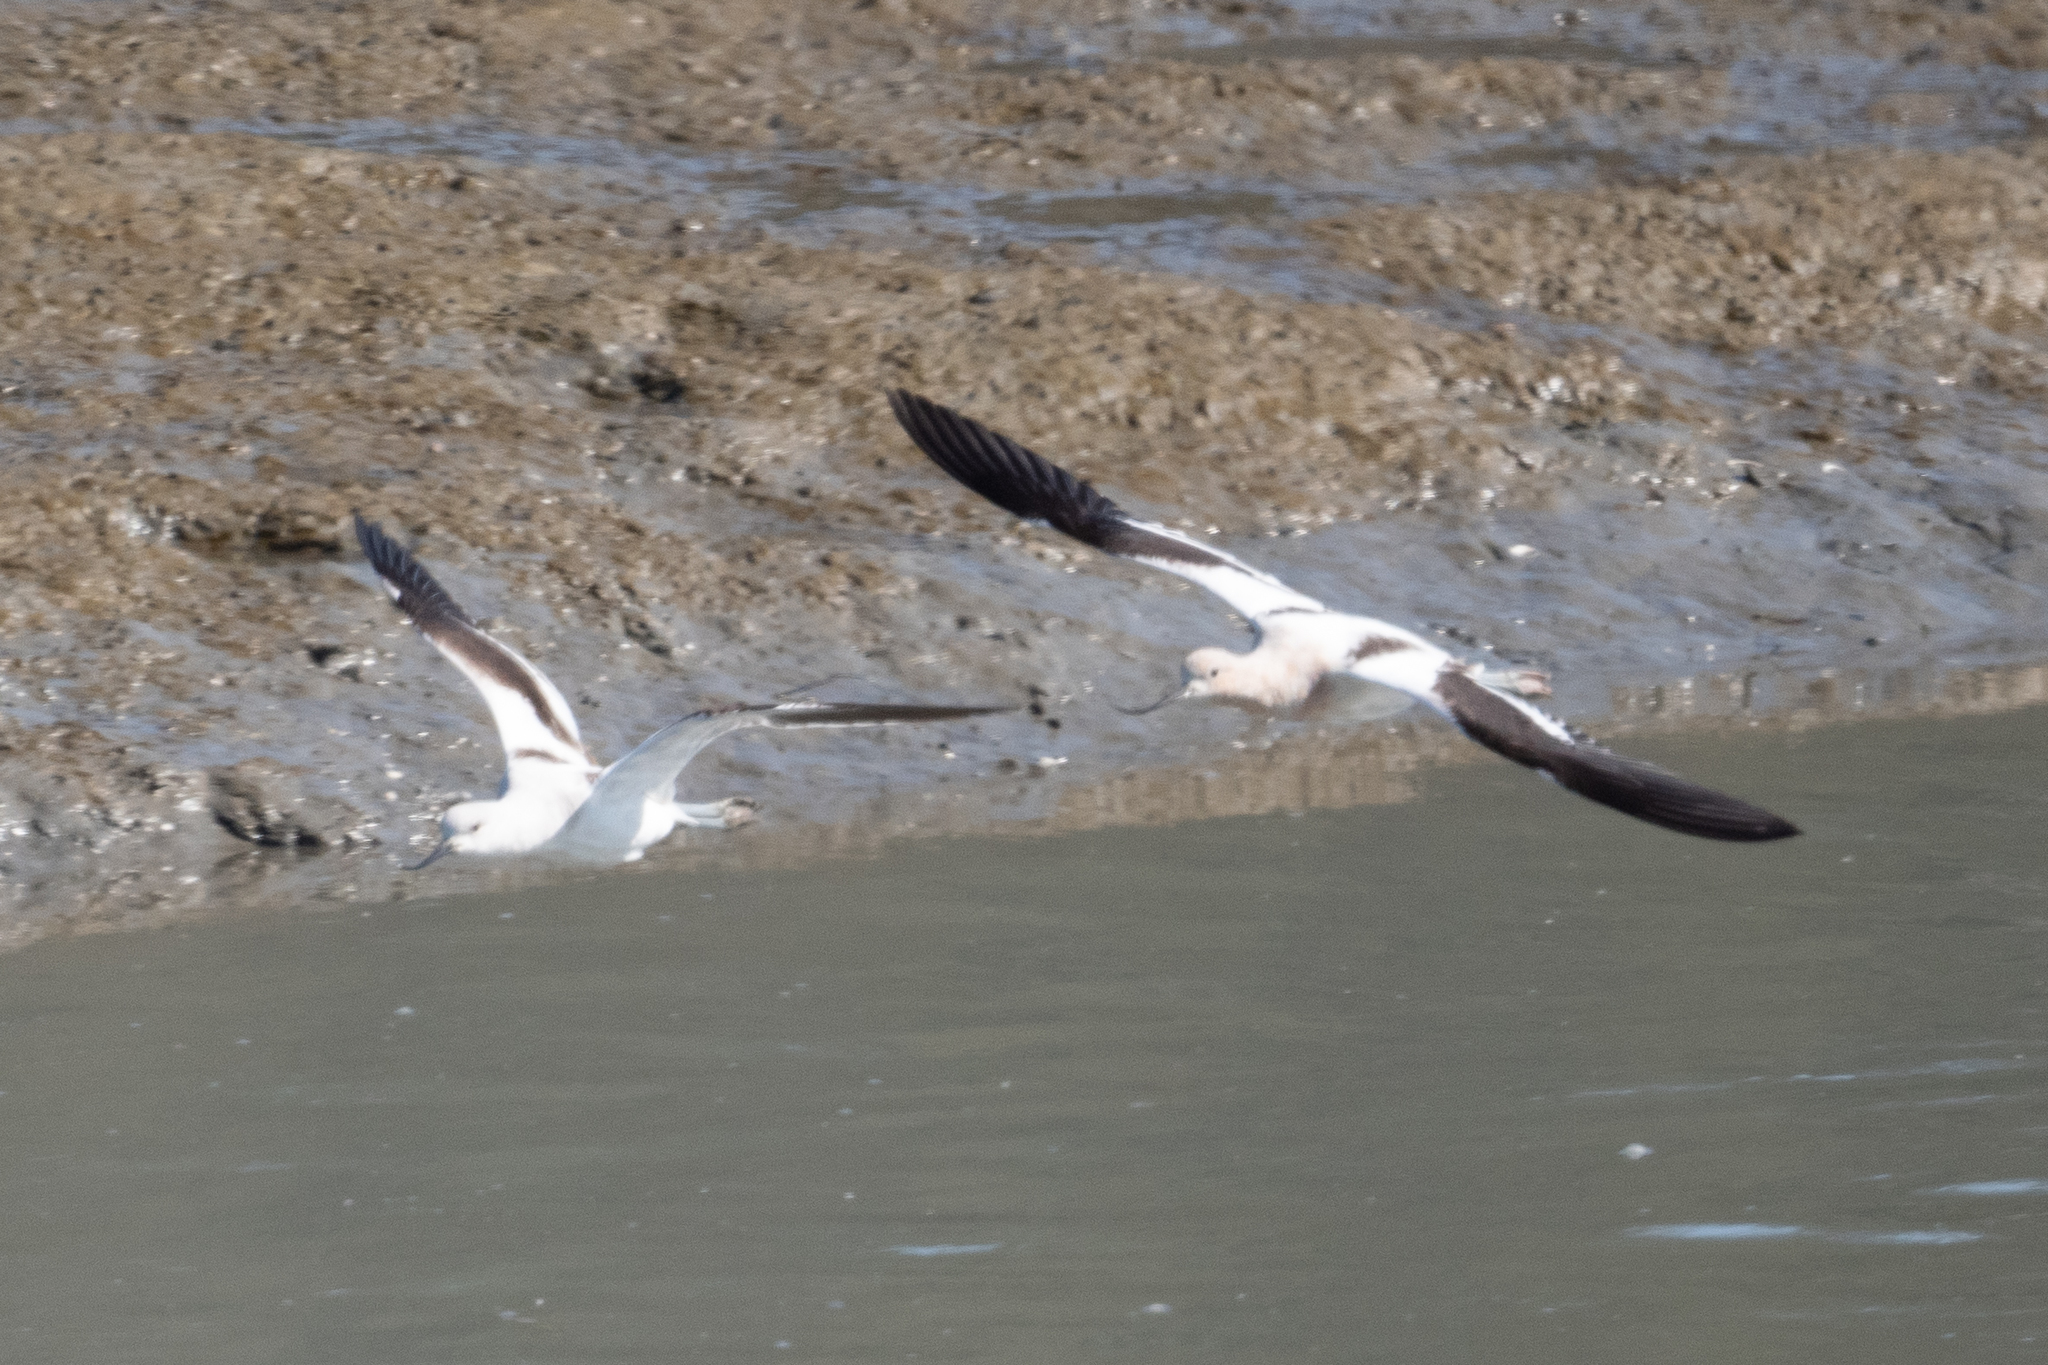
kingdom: Animalia
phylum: Chordata
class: Aves
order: Charadriiformes
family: Recurvirostridae
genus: Recurvirostra
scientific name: Recurvirostra americana
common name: American avocet
